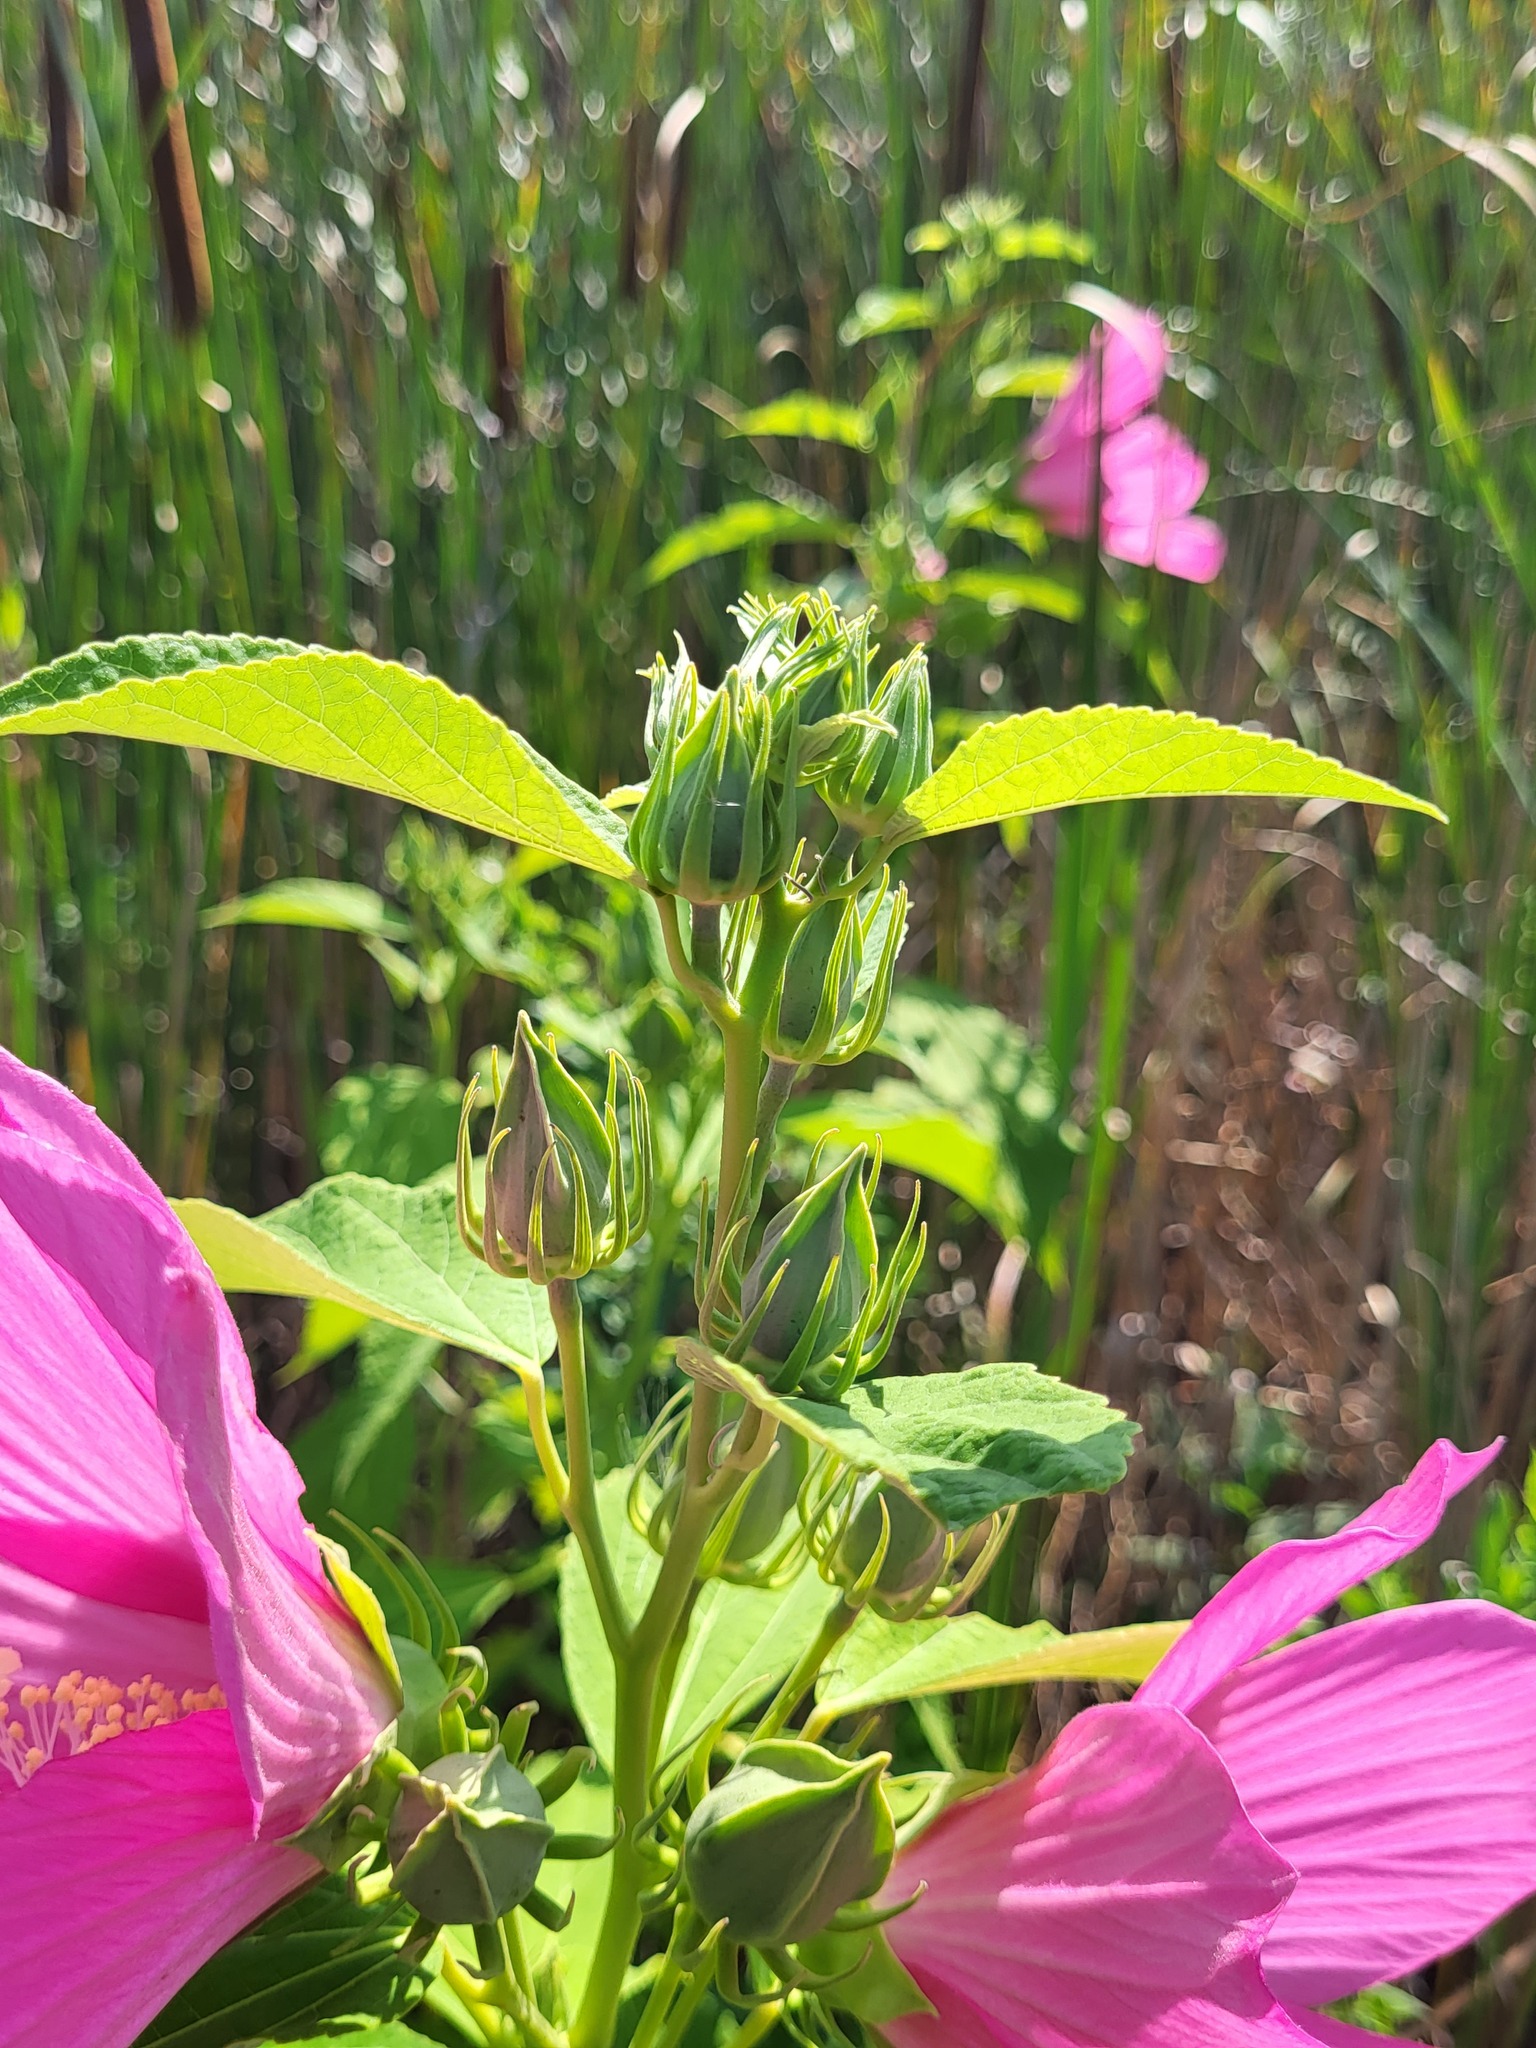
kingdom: Plantae
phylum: Tracheophyta
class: Magnoliopsida
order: Malvales
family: Malvaceae
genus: Hibiscus
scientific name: Hibiscus moscheutos
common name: Common rose-mallow
